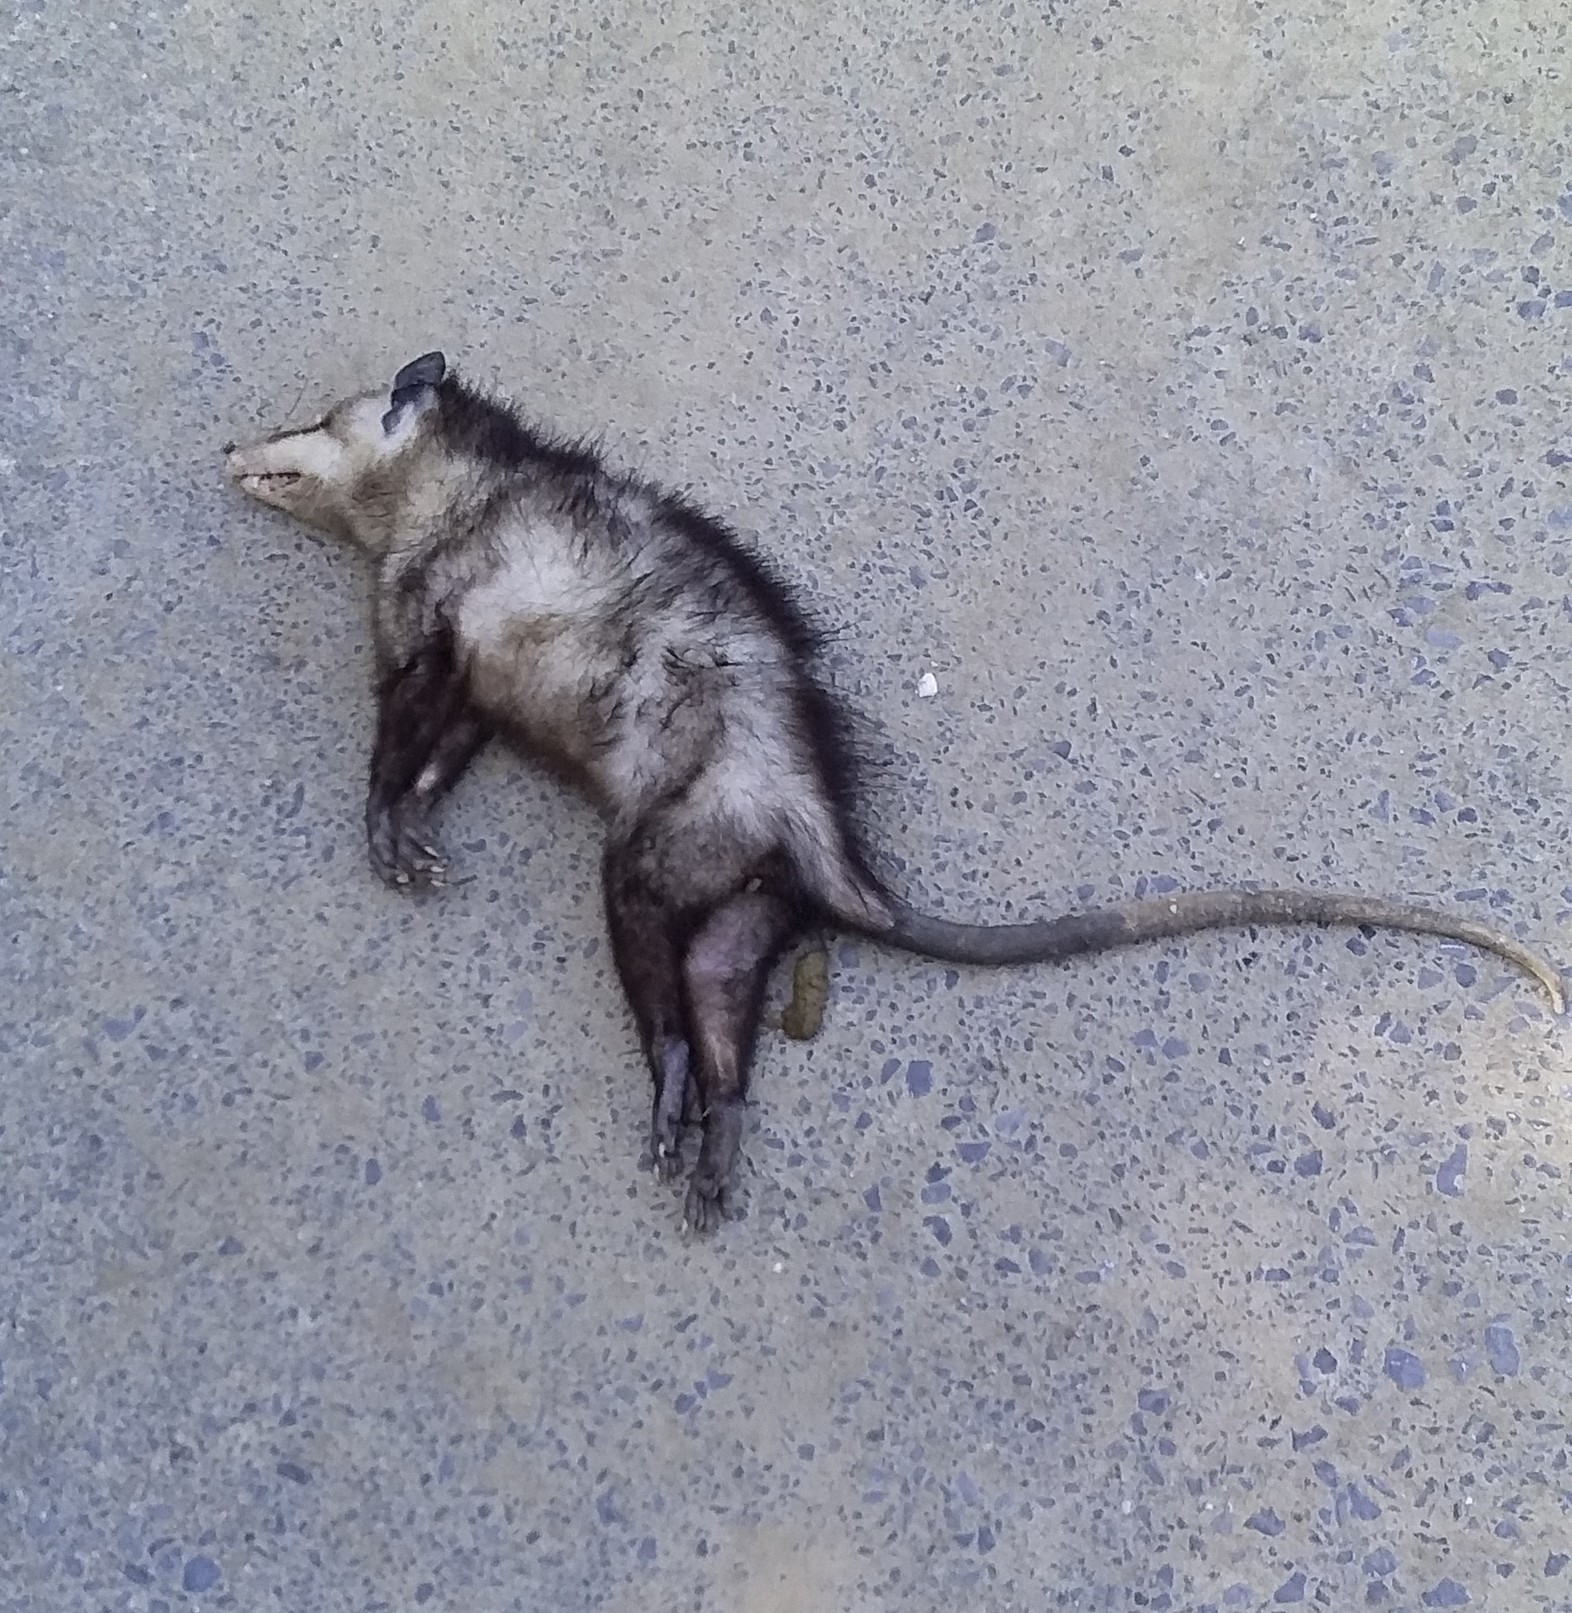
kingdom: Animalia
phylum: Chordata
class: Mammalia
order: Didelphimorphia
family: Didelphidae
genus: Didelphis
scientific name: Didelphis virginiana
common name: Virginia opossum
